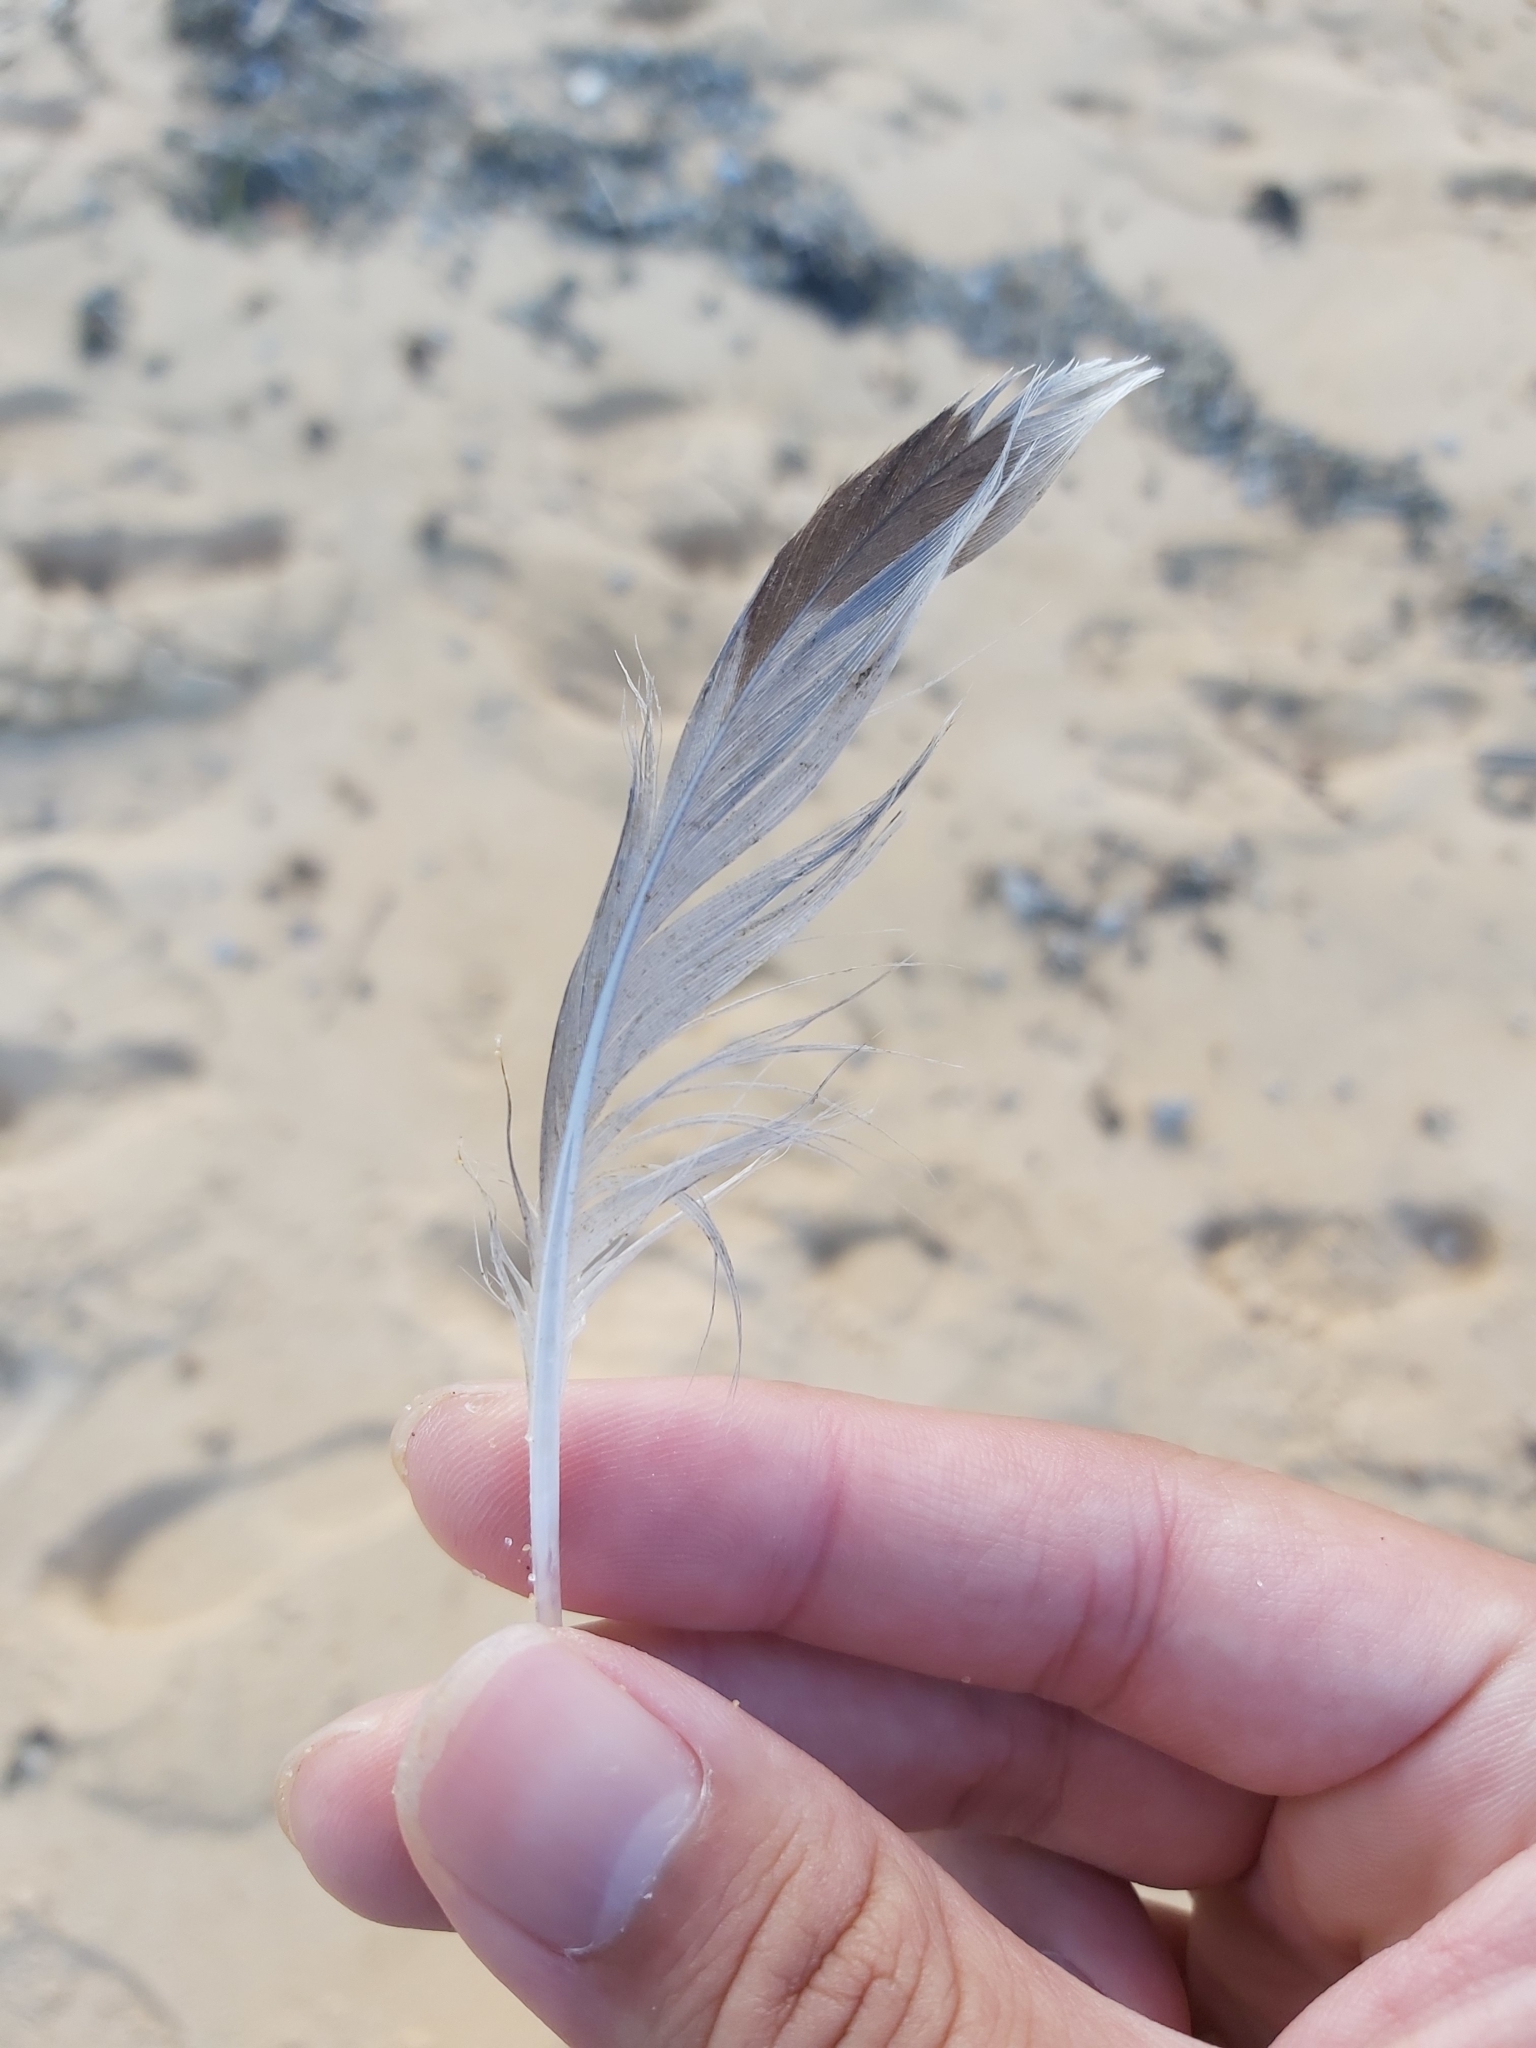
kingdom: Animalia
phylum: Chordata
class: Aves
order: Charadriiformes
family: Laridae
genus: Chroicocephalus
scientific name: Chroicocephalus novaehollandiae
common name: Silver gull
